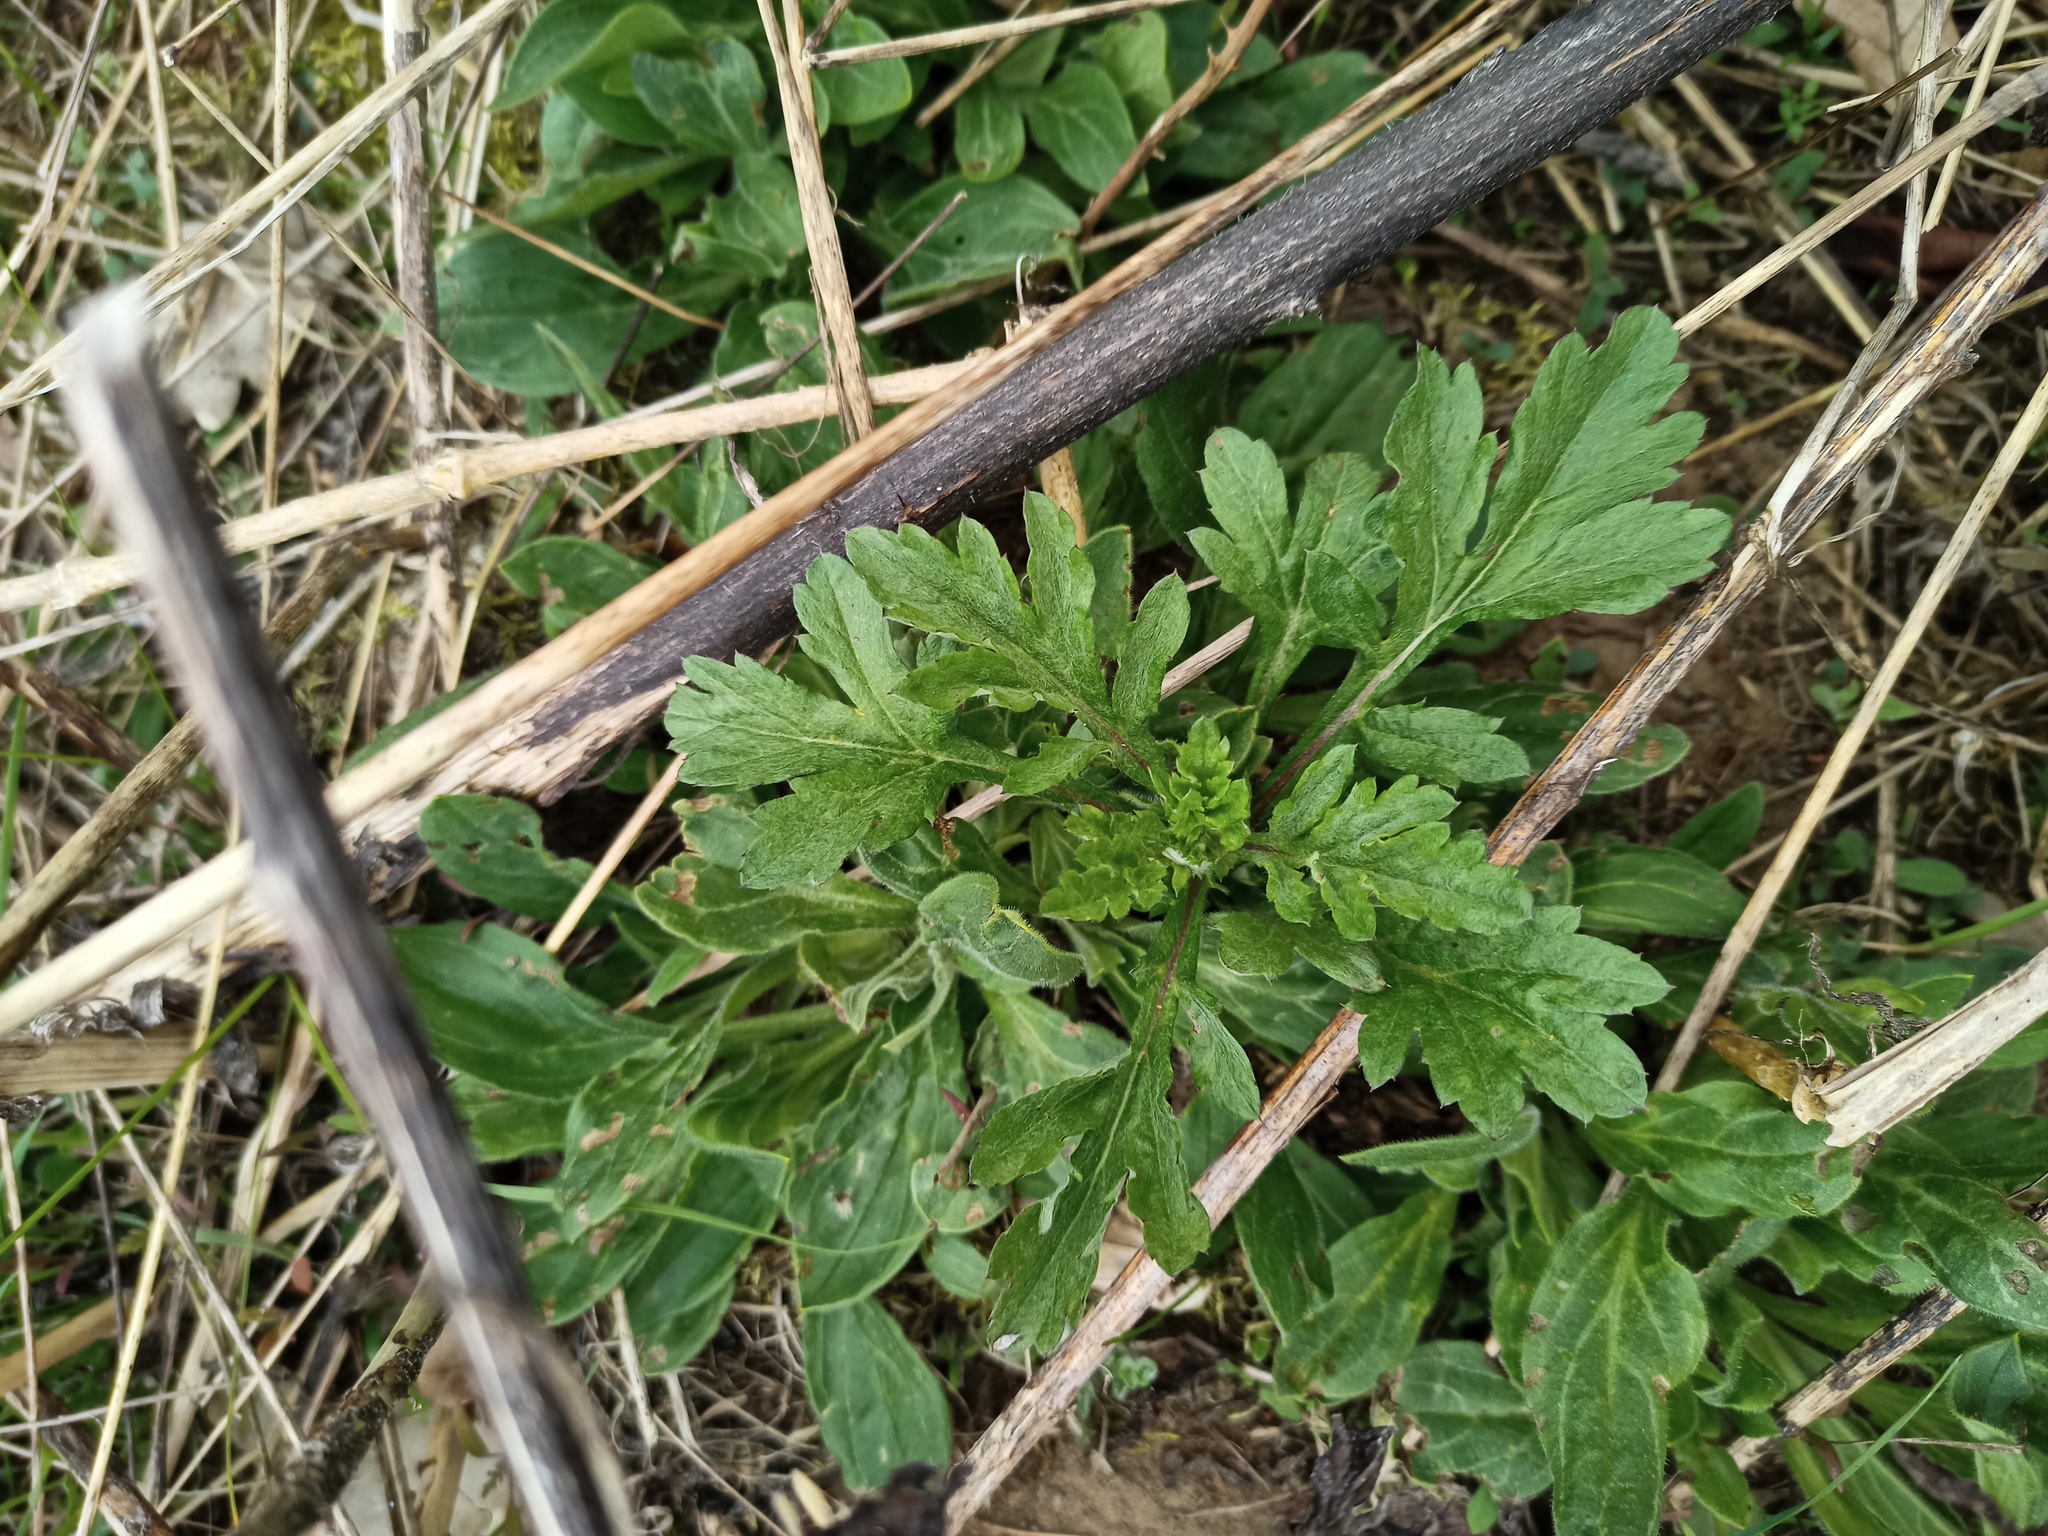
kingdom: Plantae
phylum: Tracheophyta
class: Magnoliopsida
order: Asterales
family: Asteraceae
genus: Artemisia
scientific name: Artemisia vulgaris
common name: Mugwort
